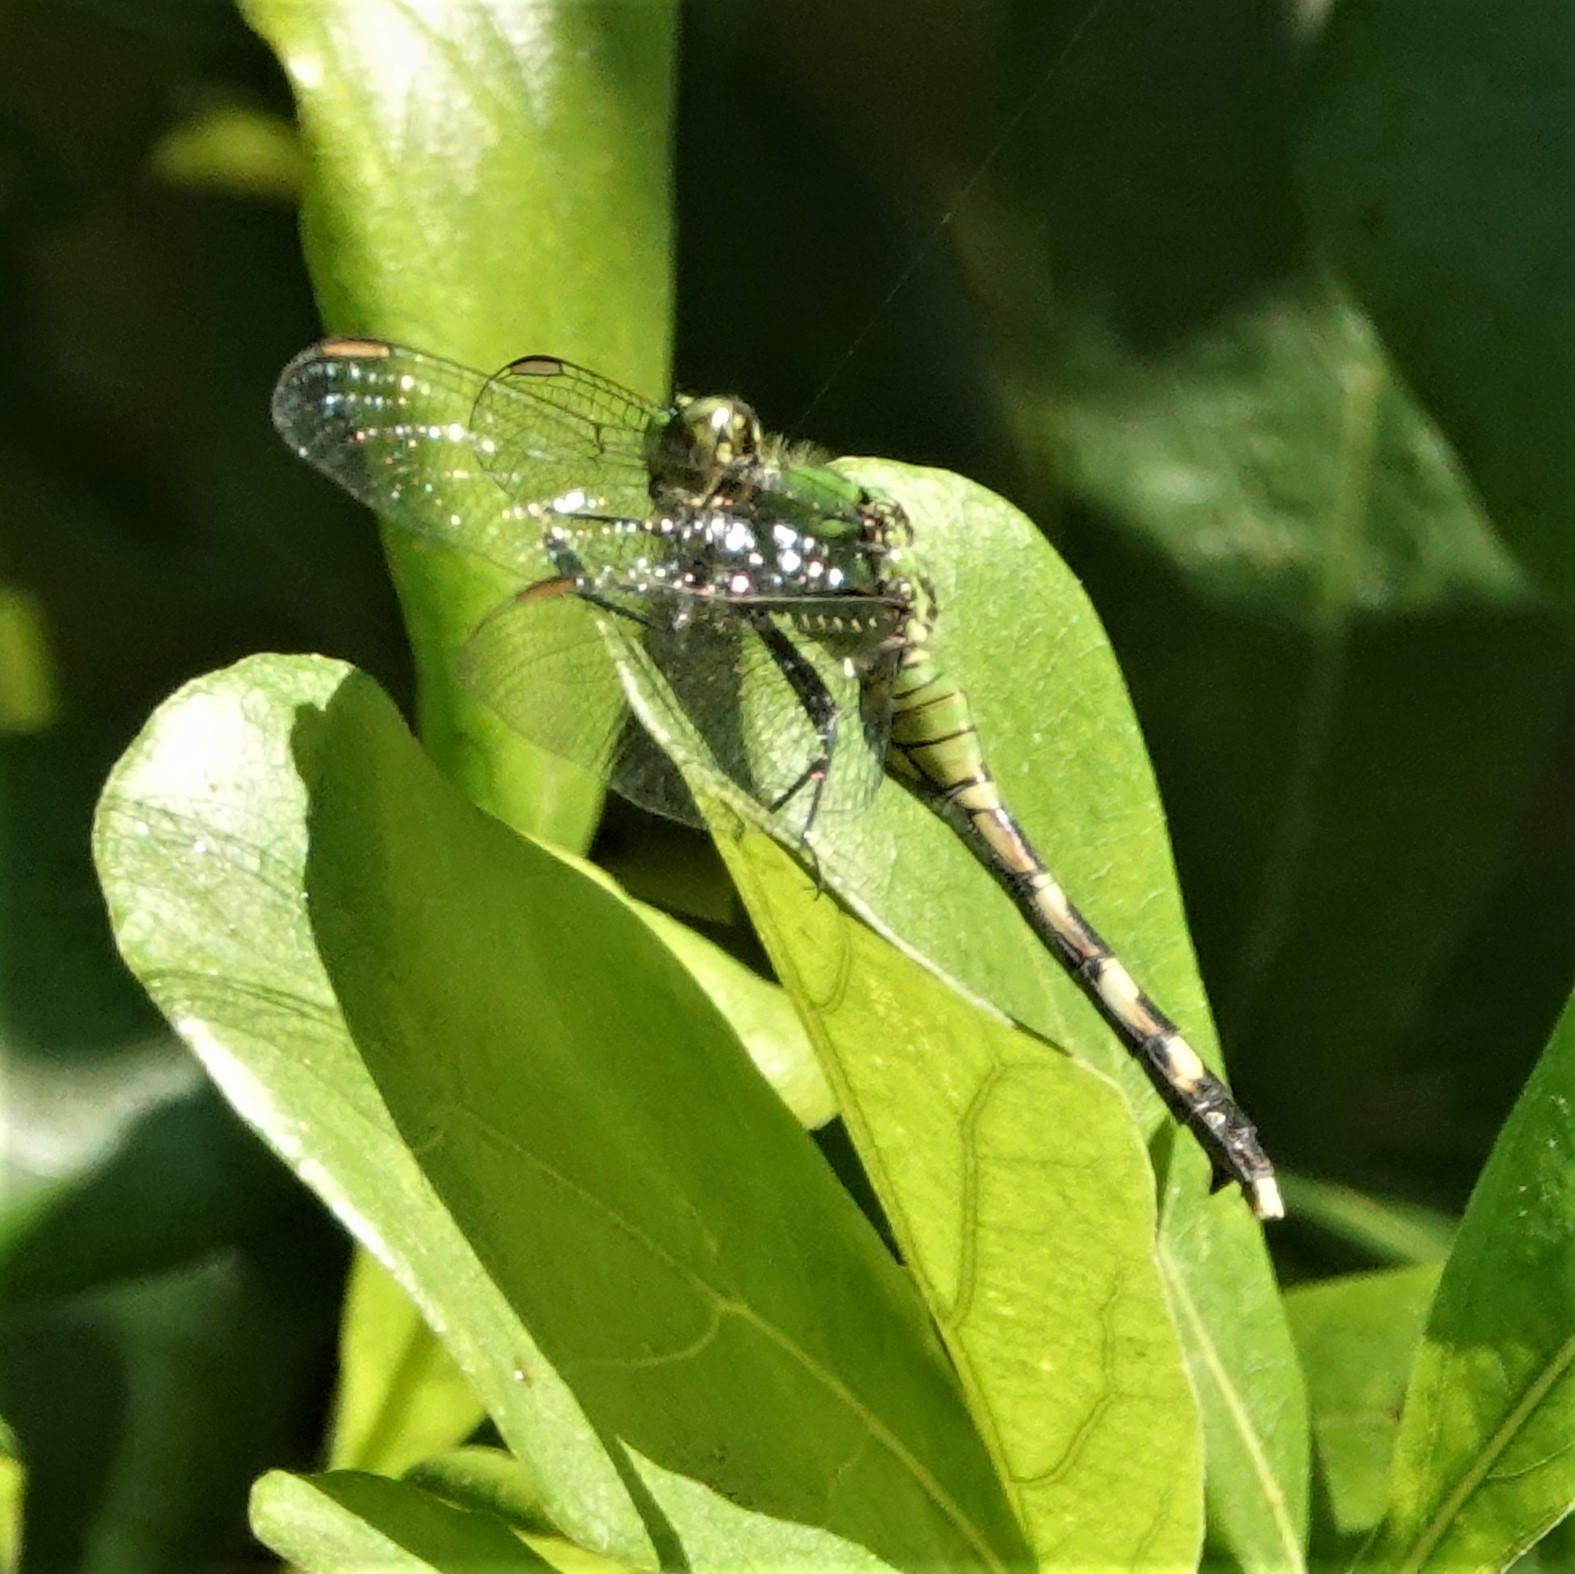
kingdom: Animalia
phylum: Arthropoda
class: Insecta
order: Odonata
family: Libellulidae
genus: Erythemis
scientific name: Erythemis simplicicollis
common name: Eastern pondhawk
